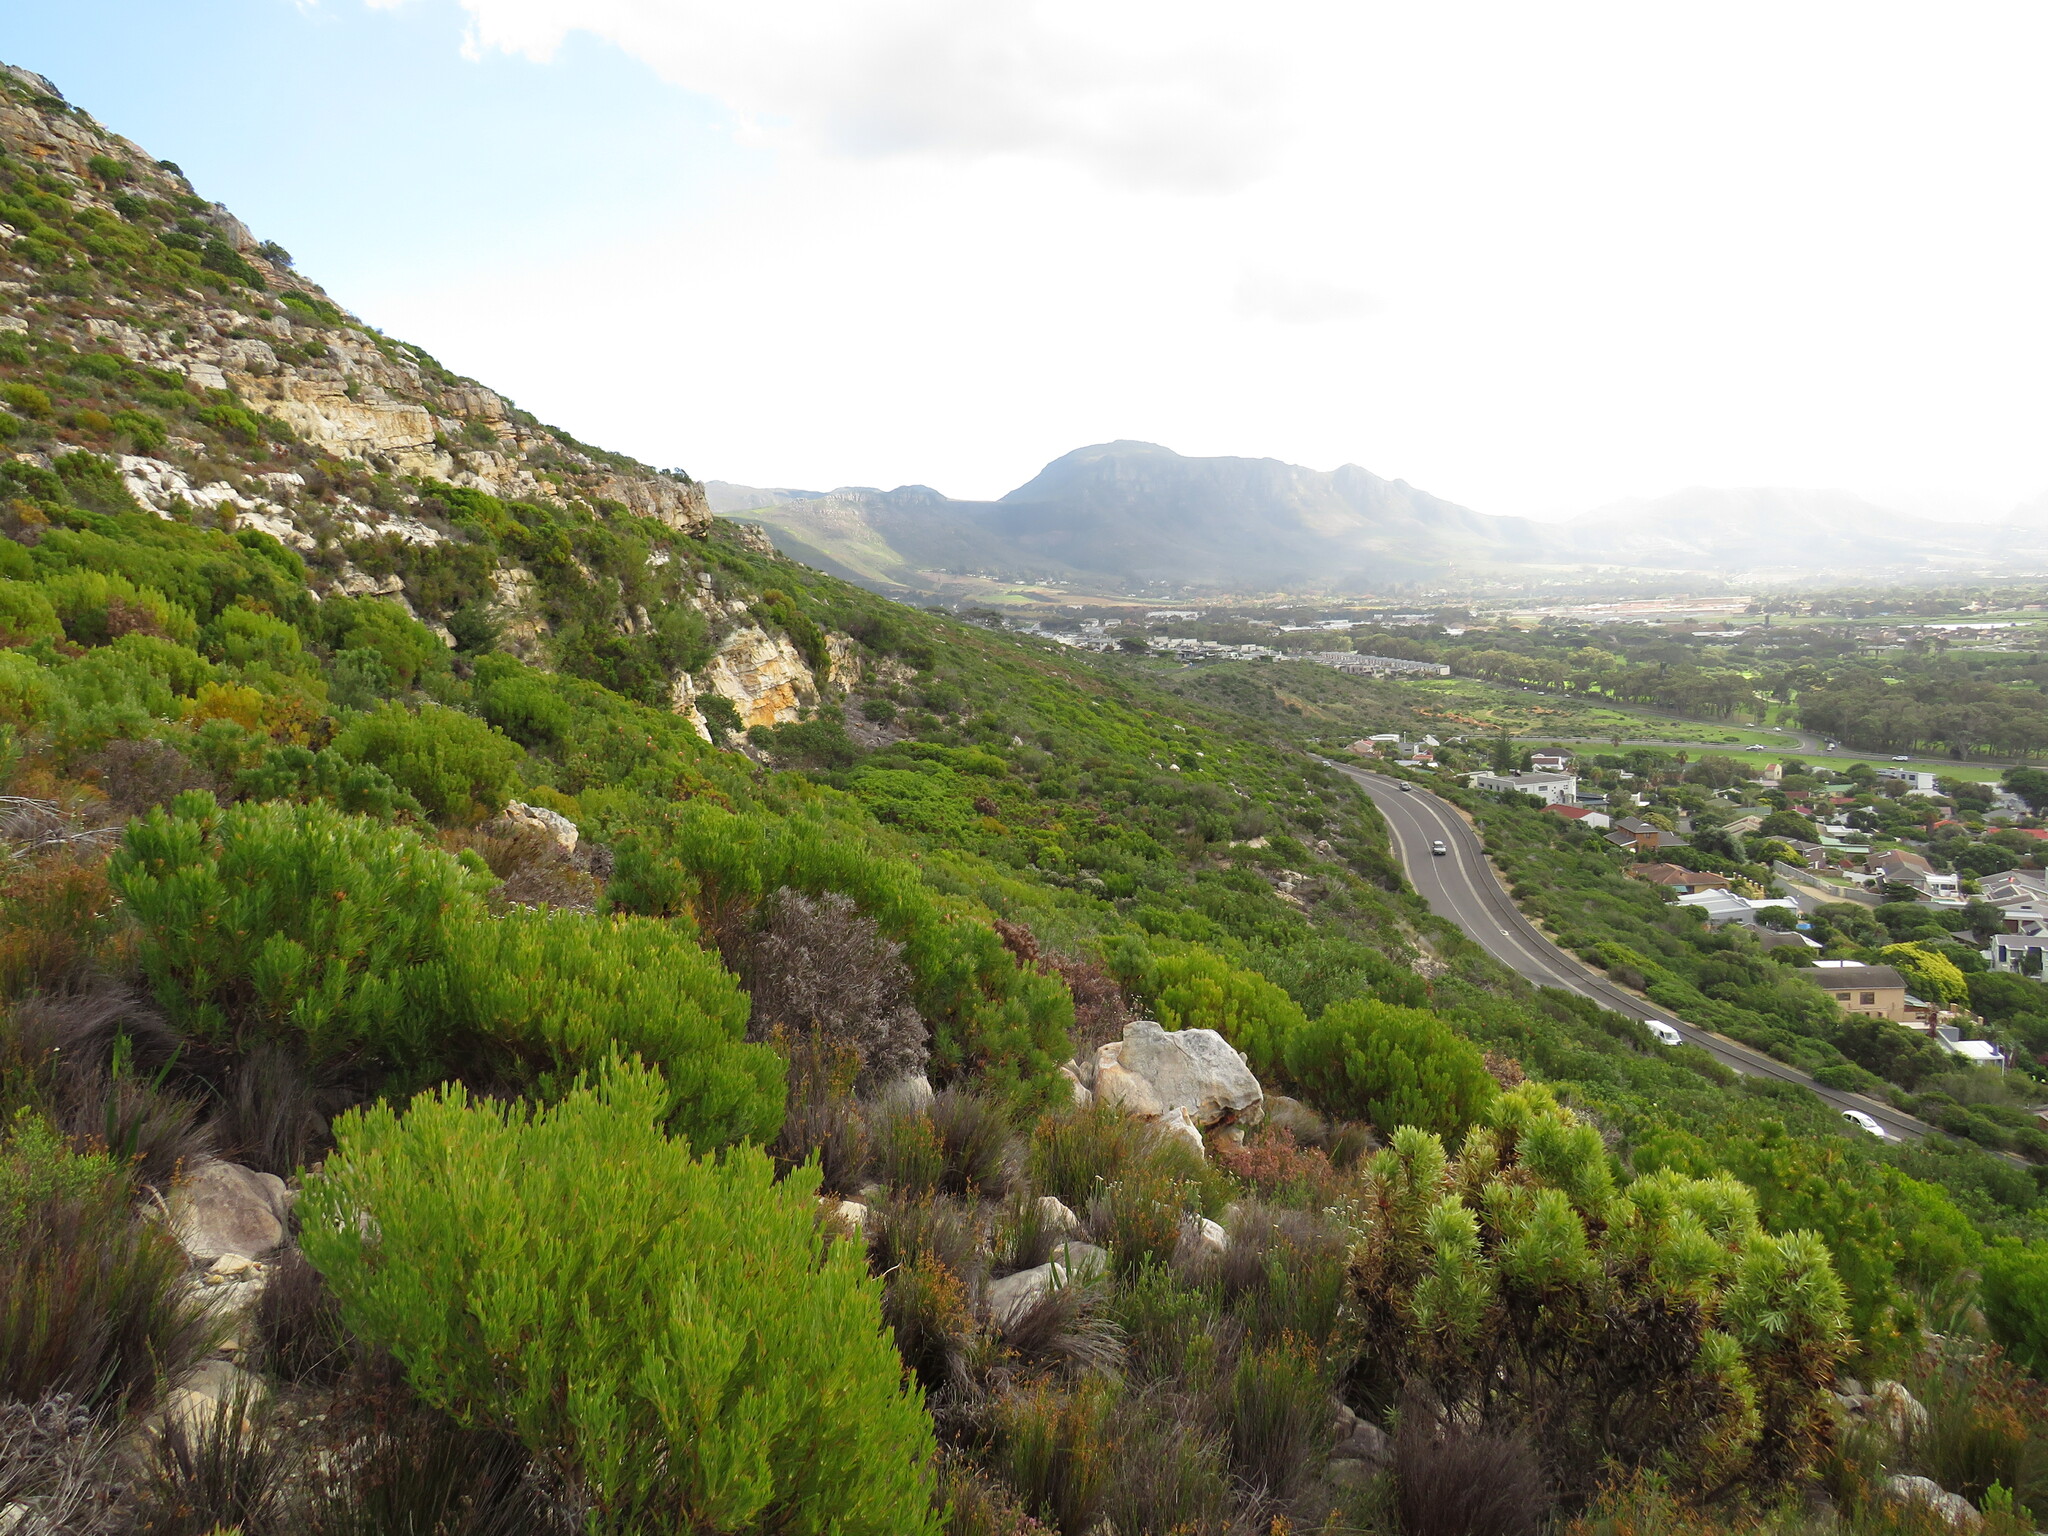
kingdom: Plantae
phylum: Tracheophyta
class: Magnoliopsida
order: Proteales
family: Proteaceae
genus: Leucadendron
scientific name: Leucadendron xanthoconus
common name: Sickle-leaf conebush
